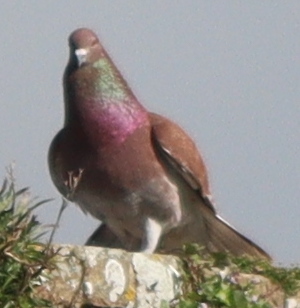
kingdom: Animalia
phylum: Chordata
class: Aves
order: Columbiformes
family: Columbidae
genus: Columba
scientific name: Columba livia
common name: Rock pigeon
